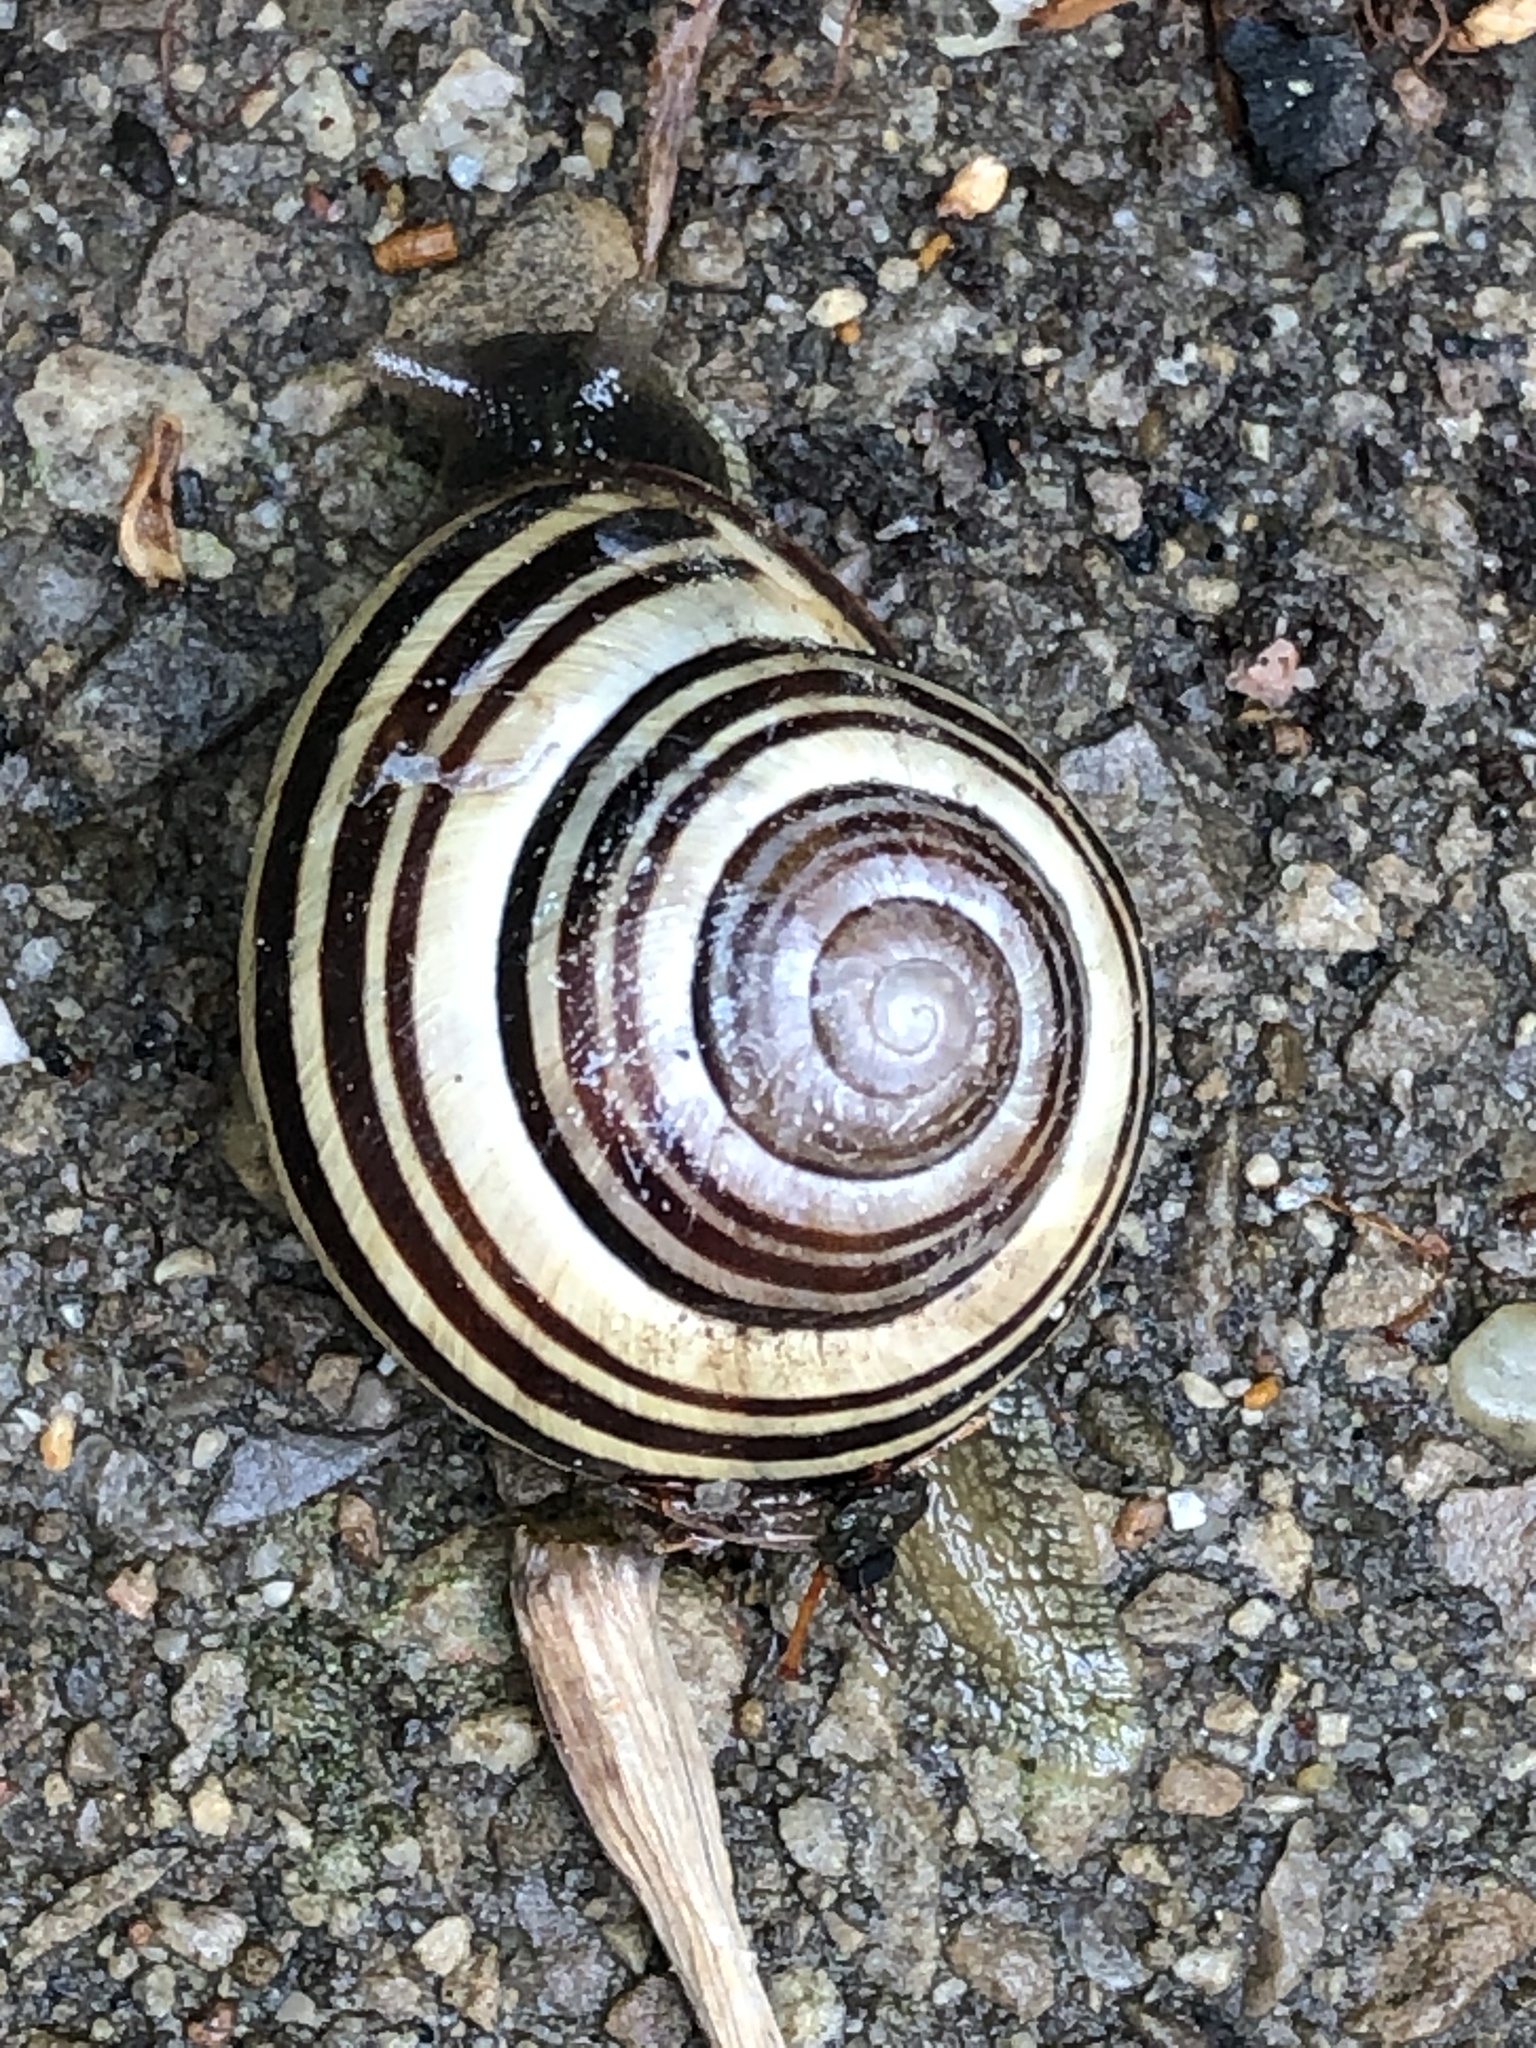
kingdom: Animalia
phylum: Mollusca
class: Gastropoda
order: Stylommatophora
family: Helicidae
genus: Cepaea
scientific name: Cepaea nemoralis
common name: Grovesnail
